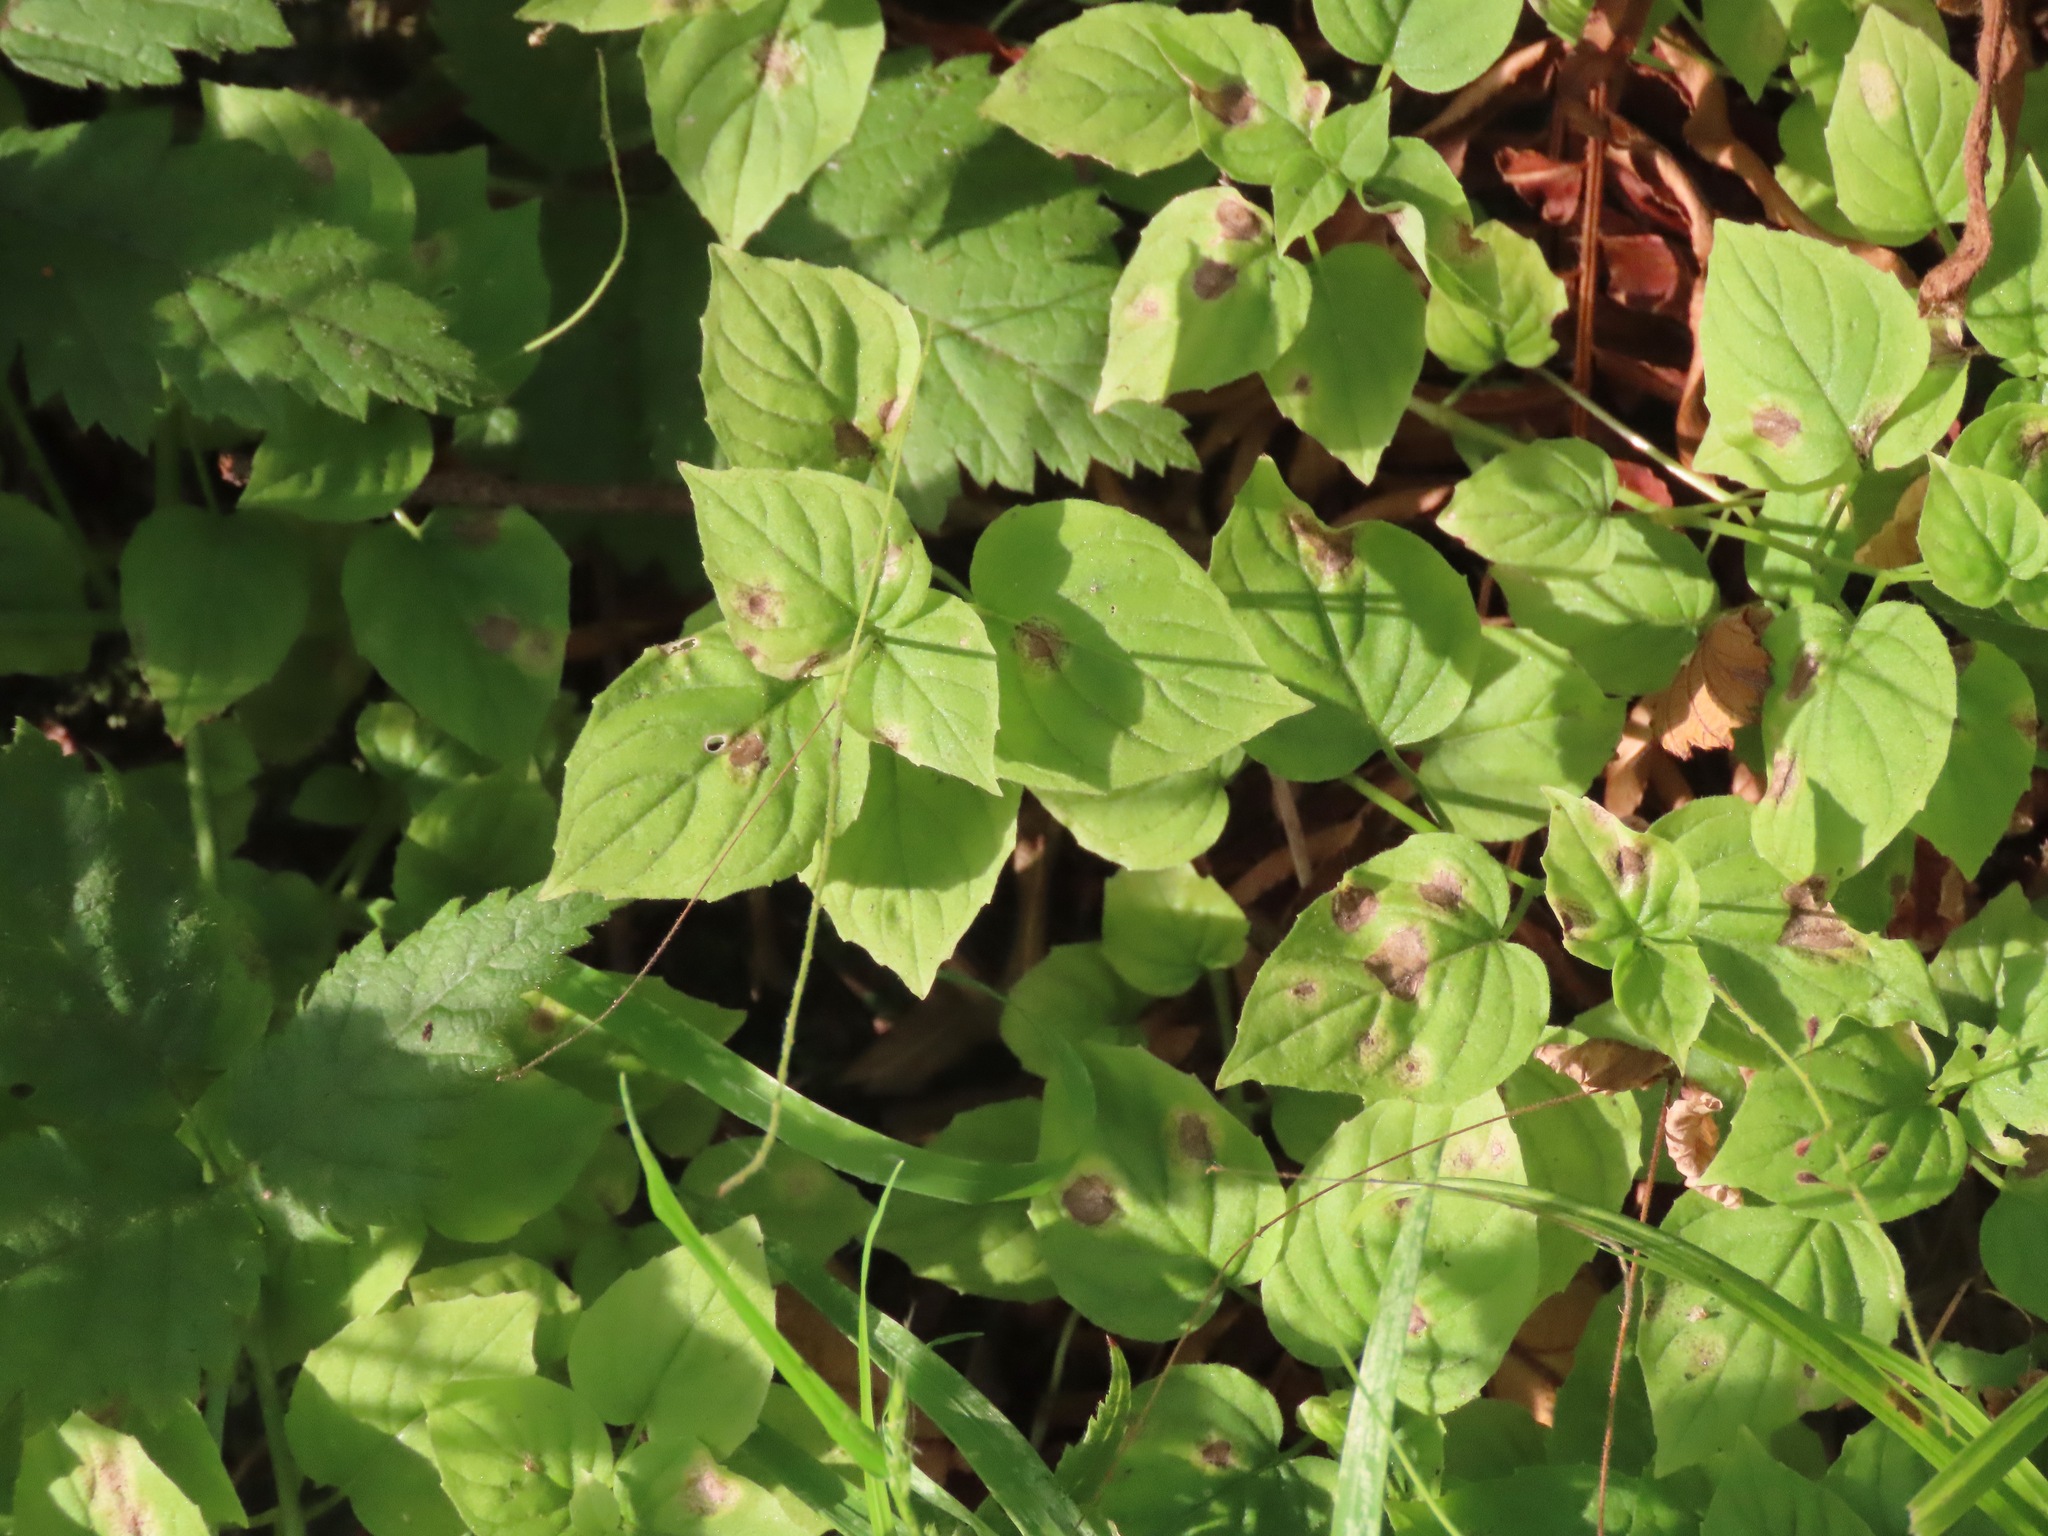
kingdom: Plantae
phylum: Tracheophyta
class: Magnoliopsida
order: Myrtales
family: Onagraceae
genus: Circaea
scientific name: Circaea alpina
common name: Alpine enchanter's-nightshade
